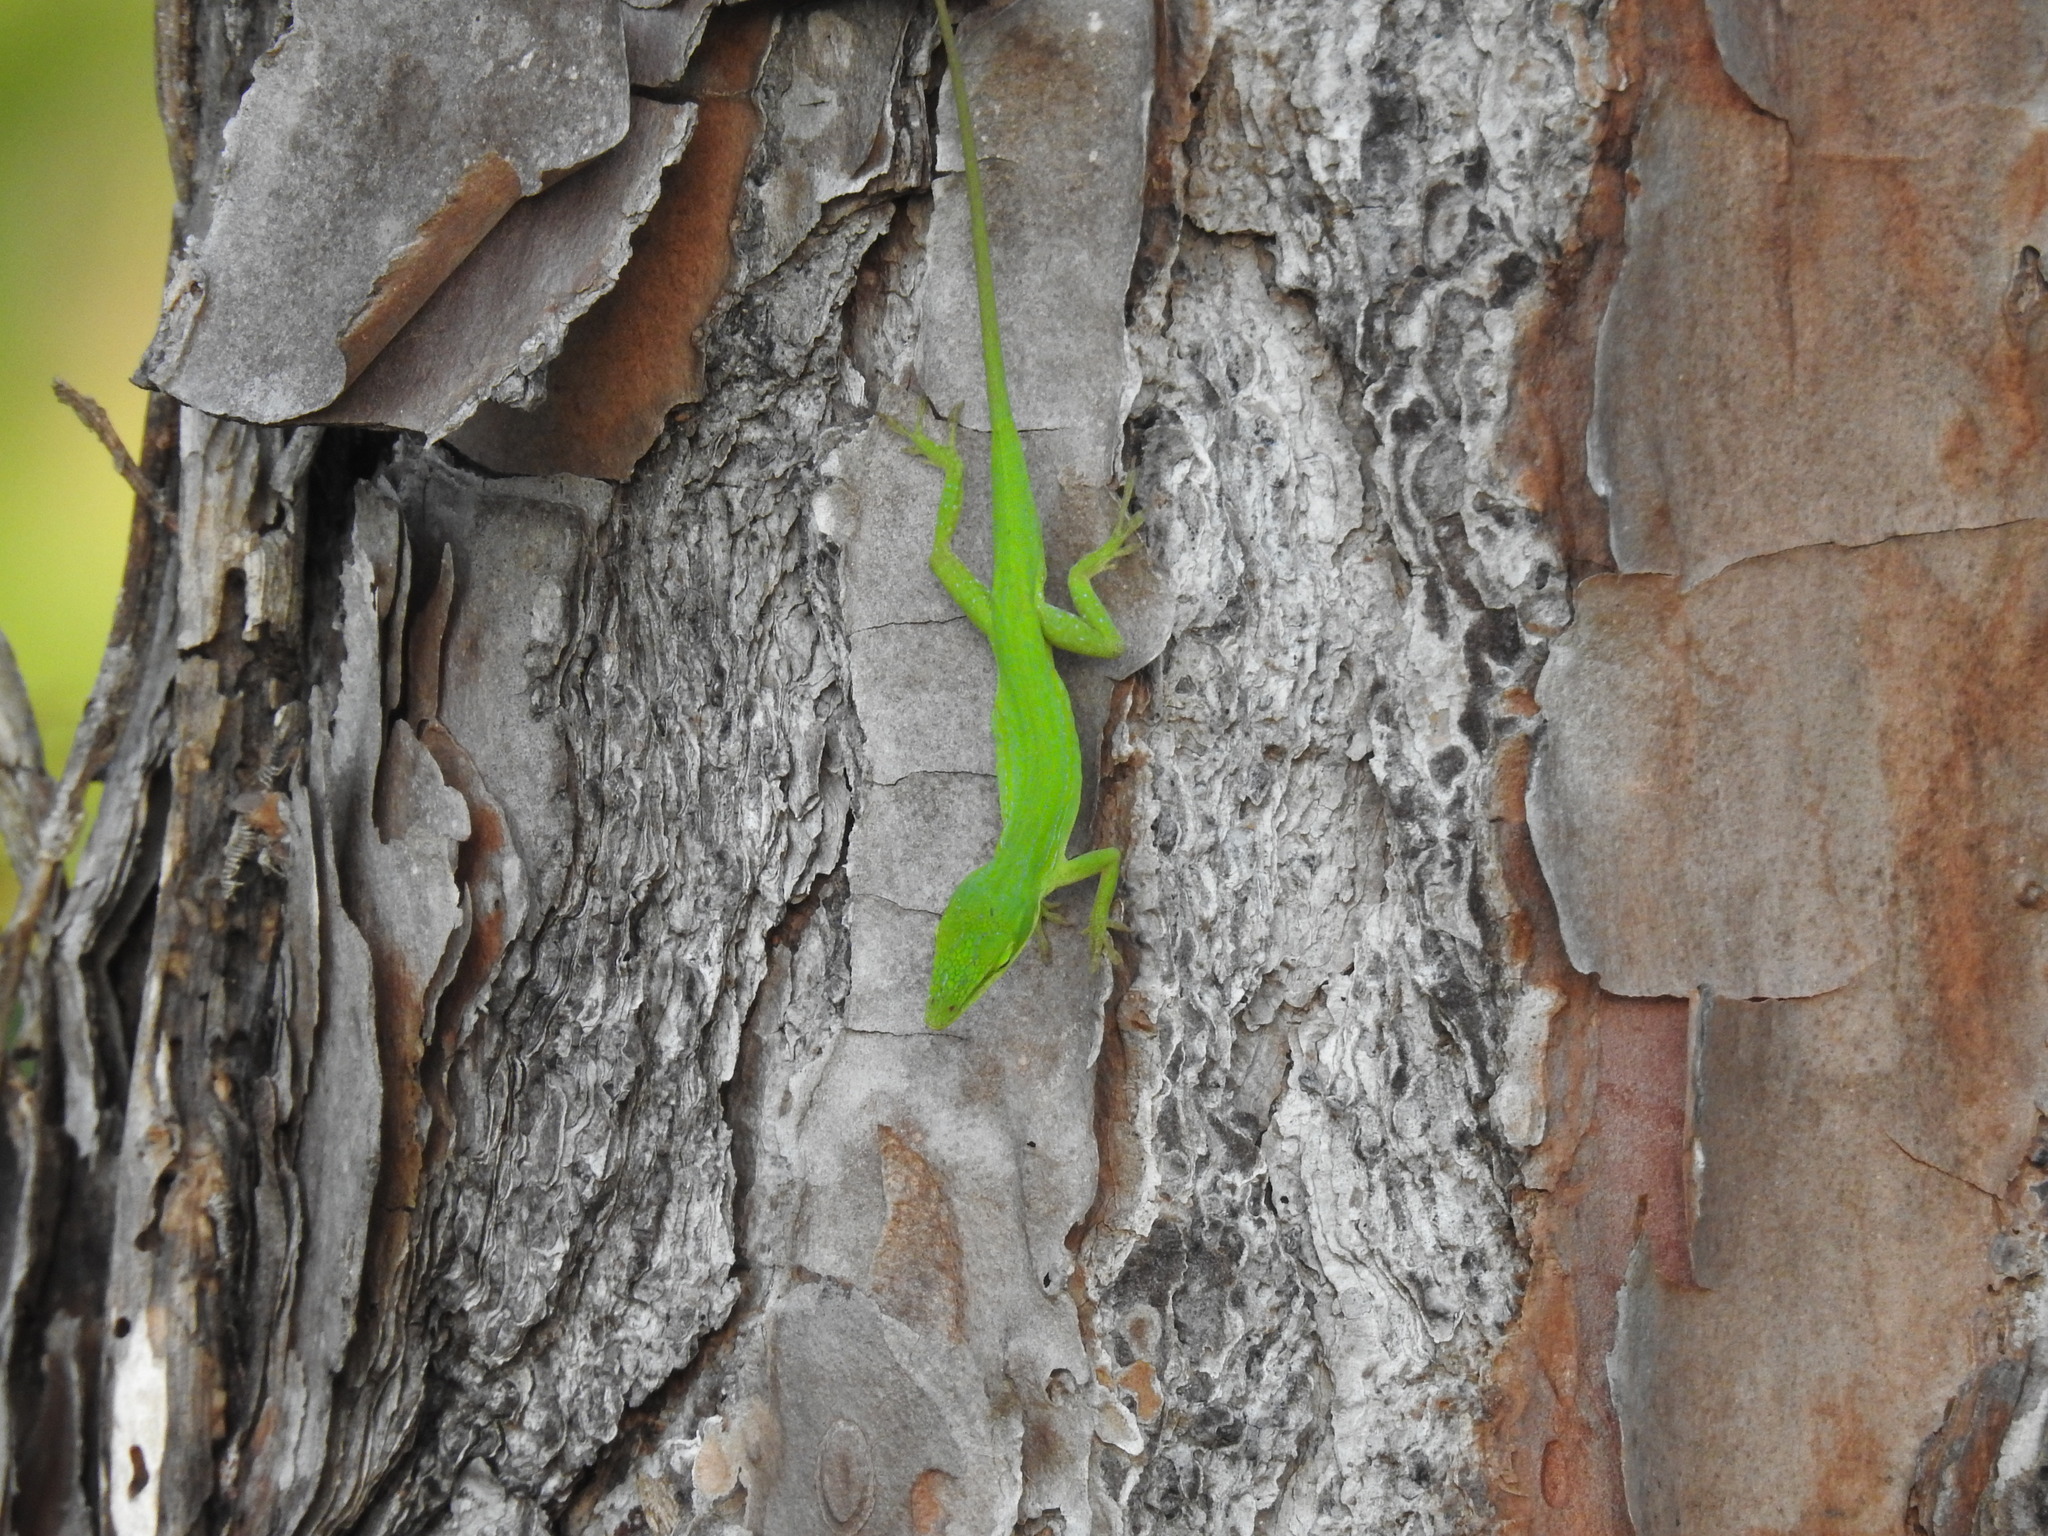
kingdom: Animalia
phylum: Chordata
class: Squamata
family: Dactyloidae
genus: Anolis
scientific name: Anolis carolinensis
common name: Green anole
